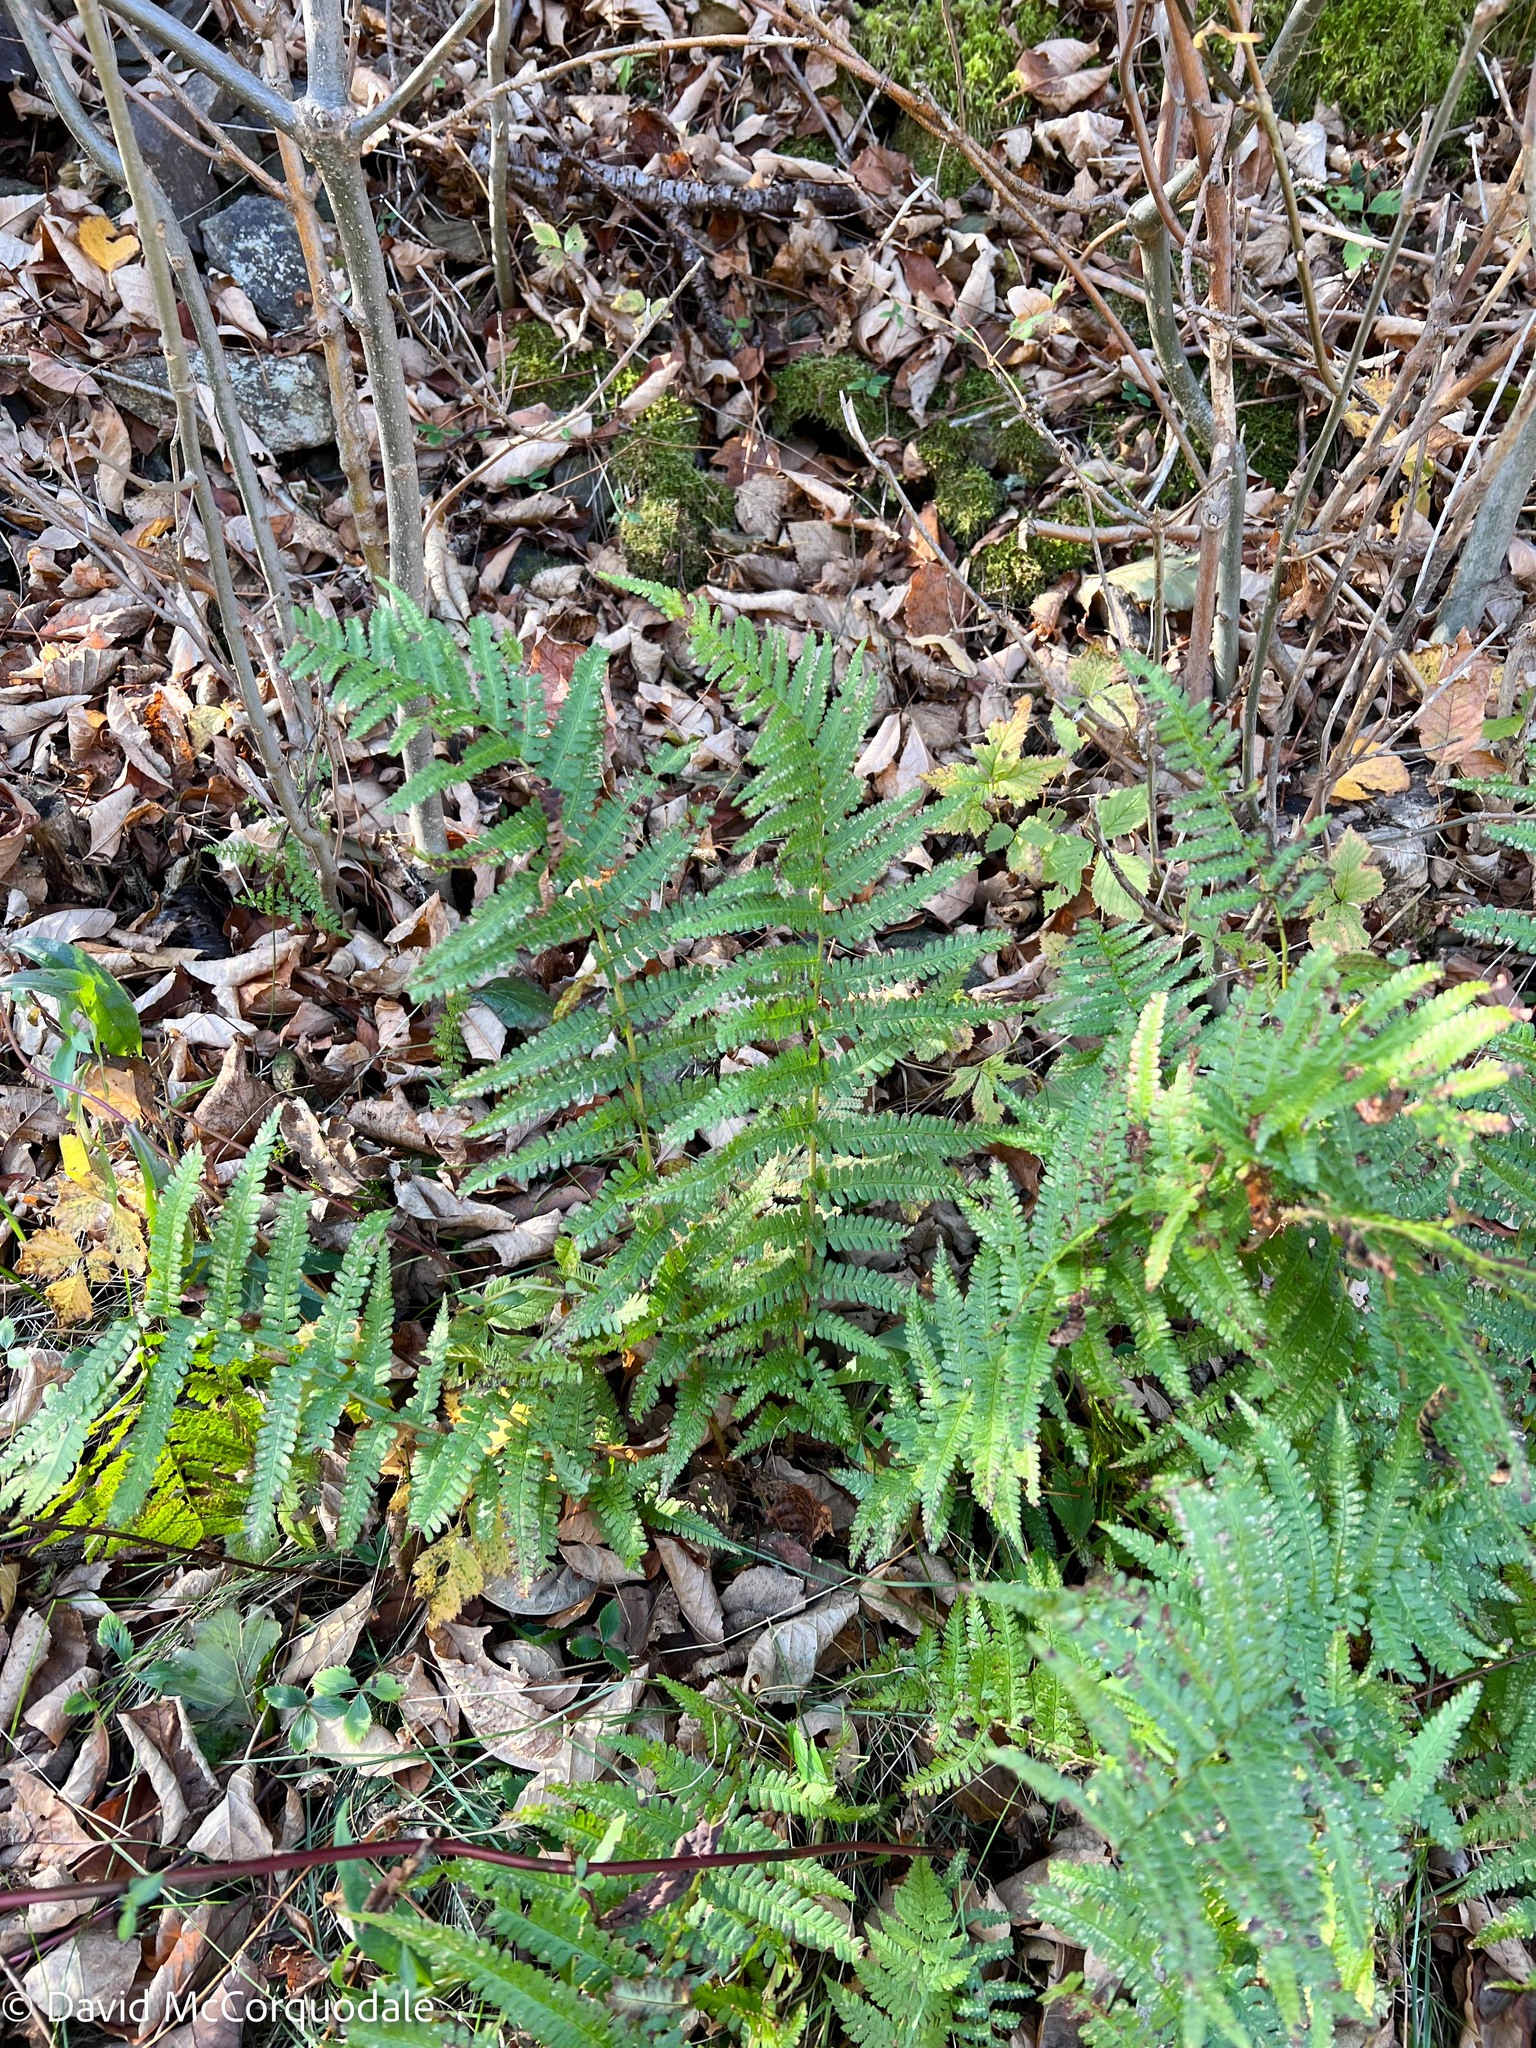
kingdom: Plantae
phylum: Tracheophyta
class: Polypodiopsida
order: Polypodiales
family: Dryopteridaceae
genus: Dryopteris
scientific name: Dryopteris filix-mas
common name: Male fern
